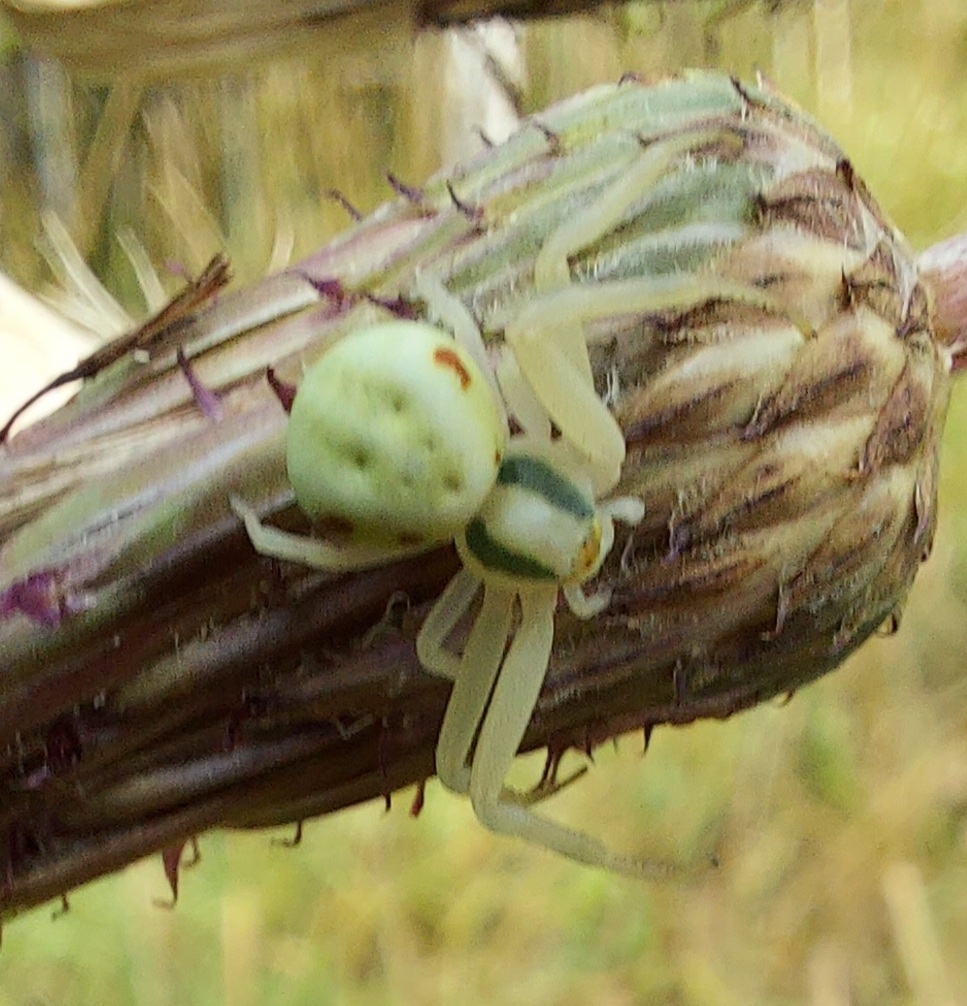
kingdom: Animalia
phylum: Arthropoda
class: Arachnida
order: Araneae
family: Thomisidae
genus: Misumena
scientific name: Misumena vatia
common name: Goldenrod crab spider
